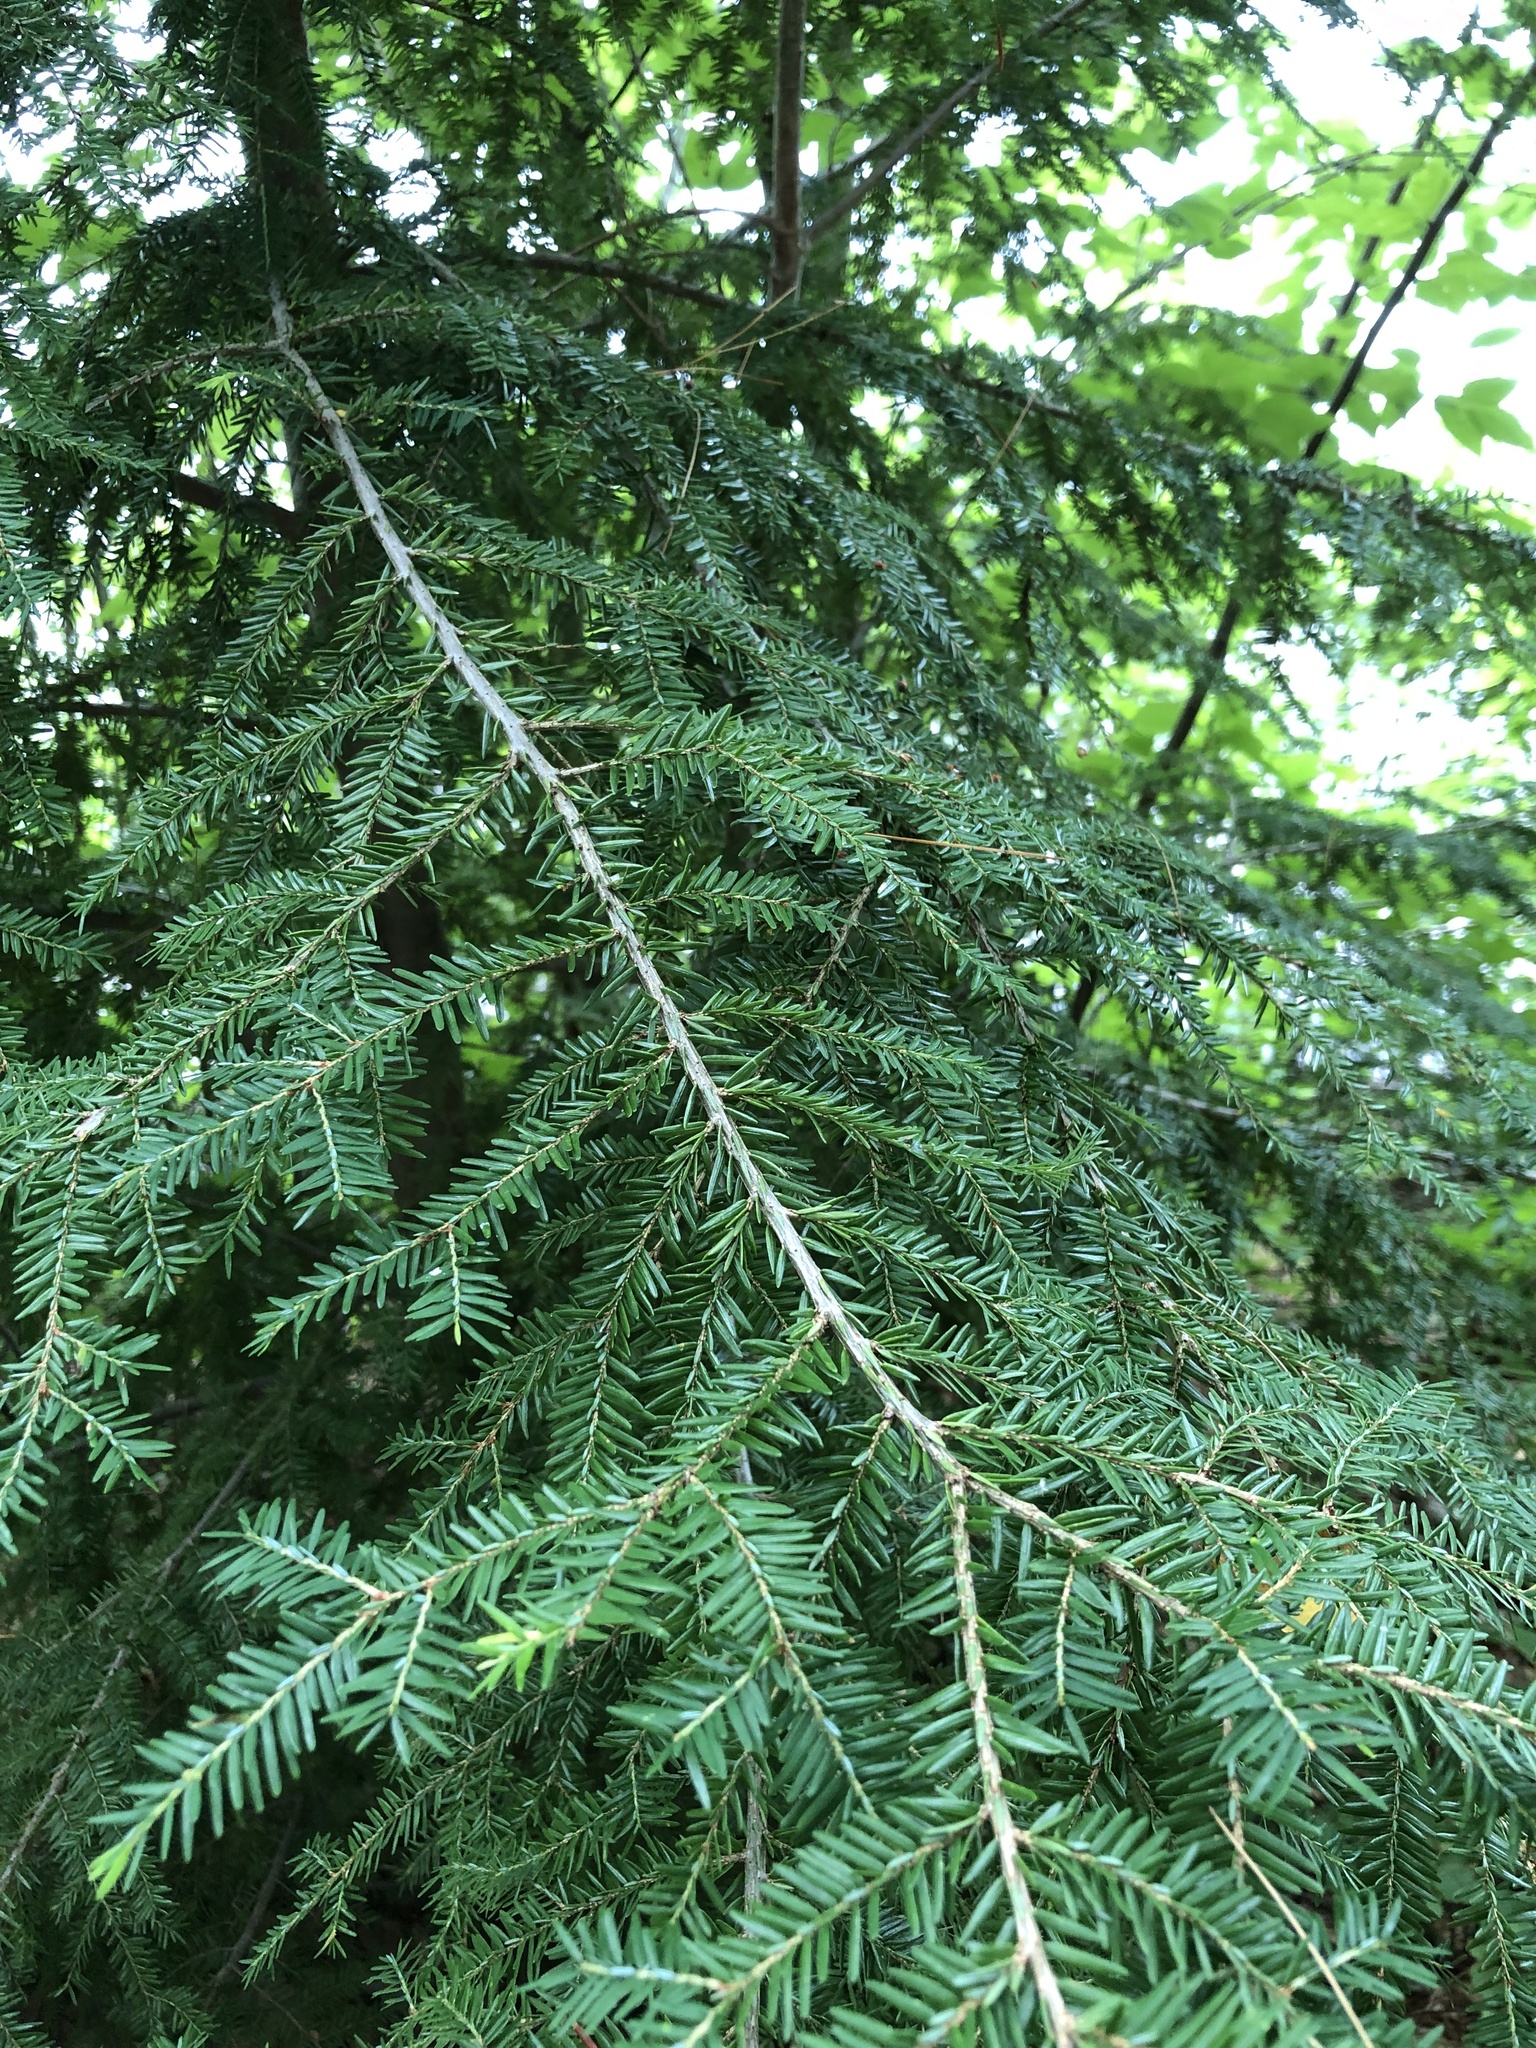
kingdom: Plantae
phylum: Tracheophyta
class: Pinopsida
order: Pinales
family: Pinaceae
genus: Tsuga
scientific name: Tsuga canadensis
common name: Eastern hemlock
